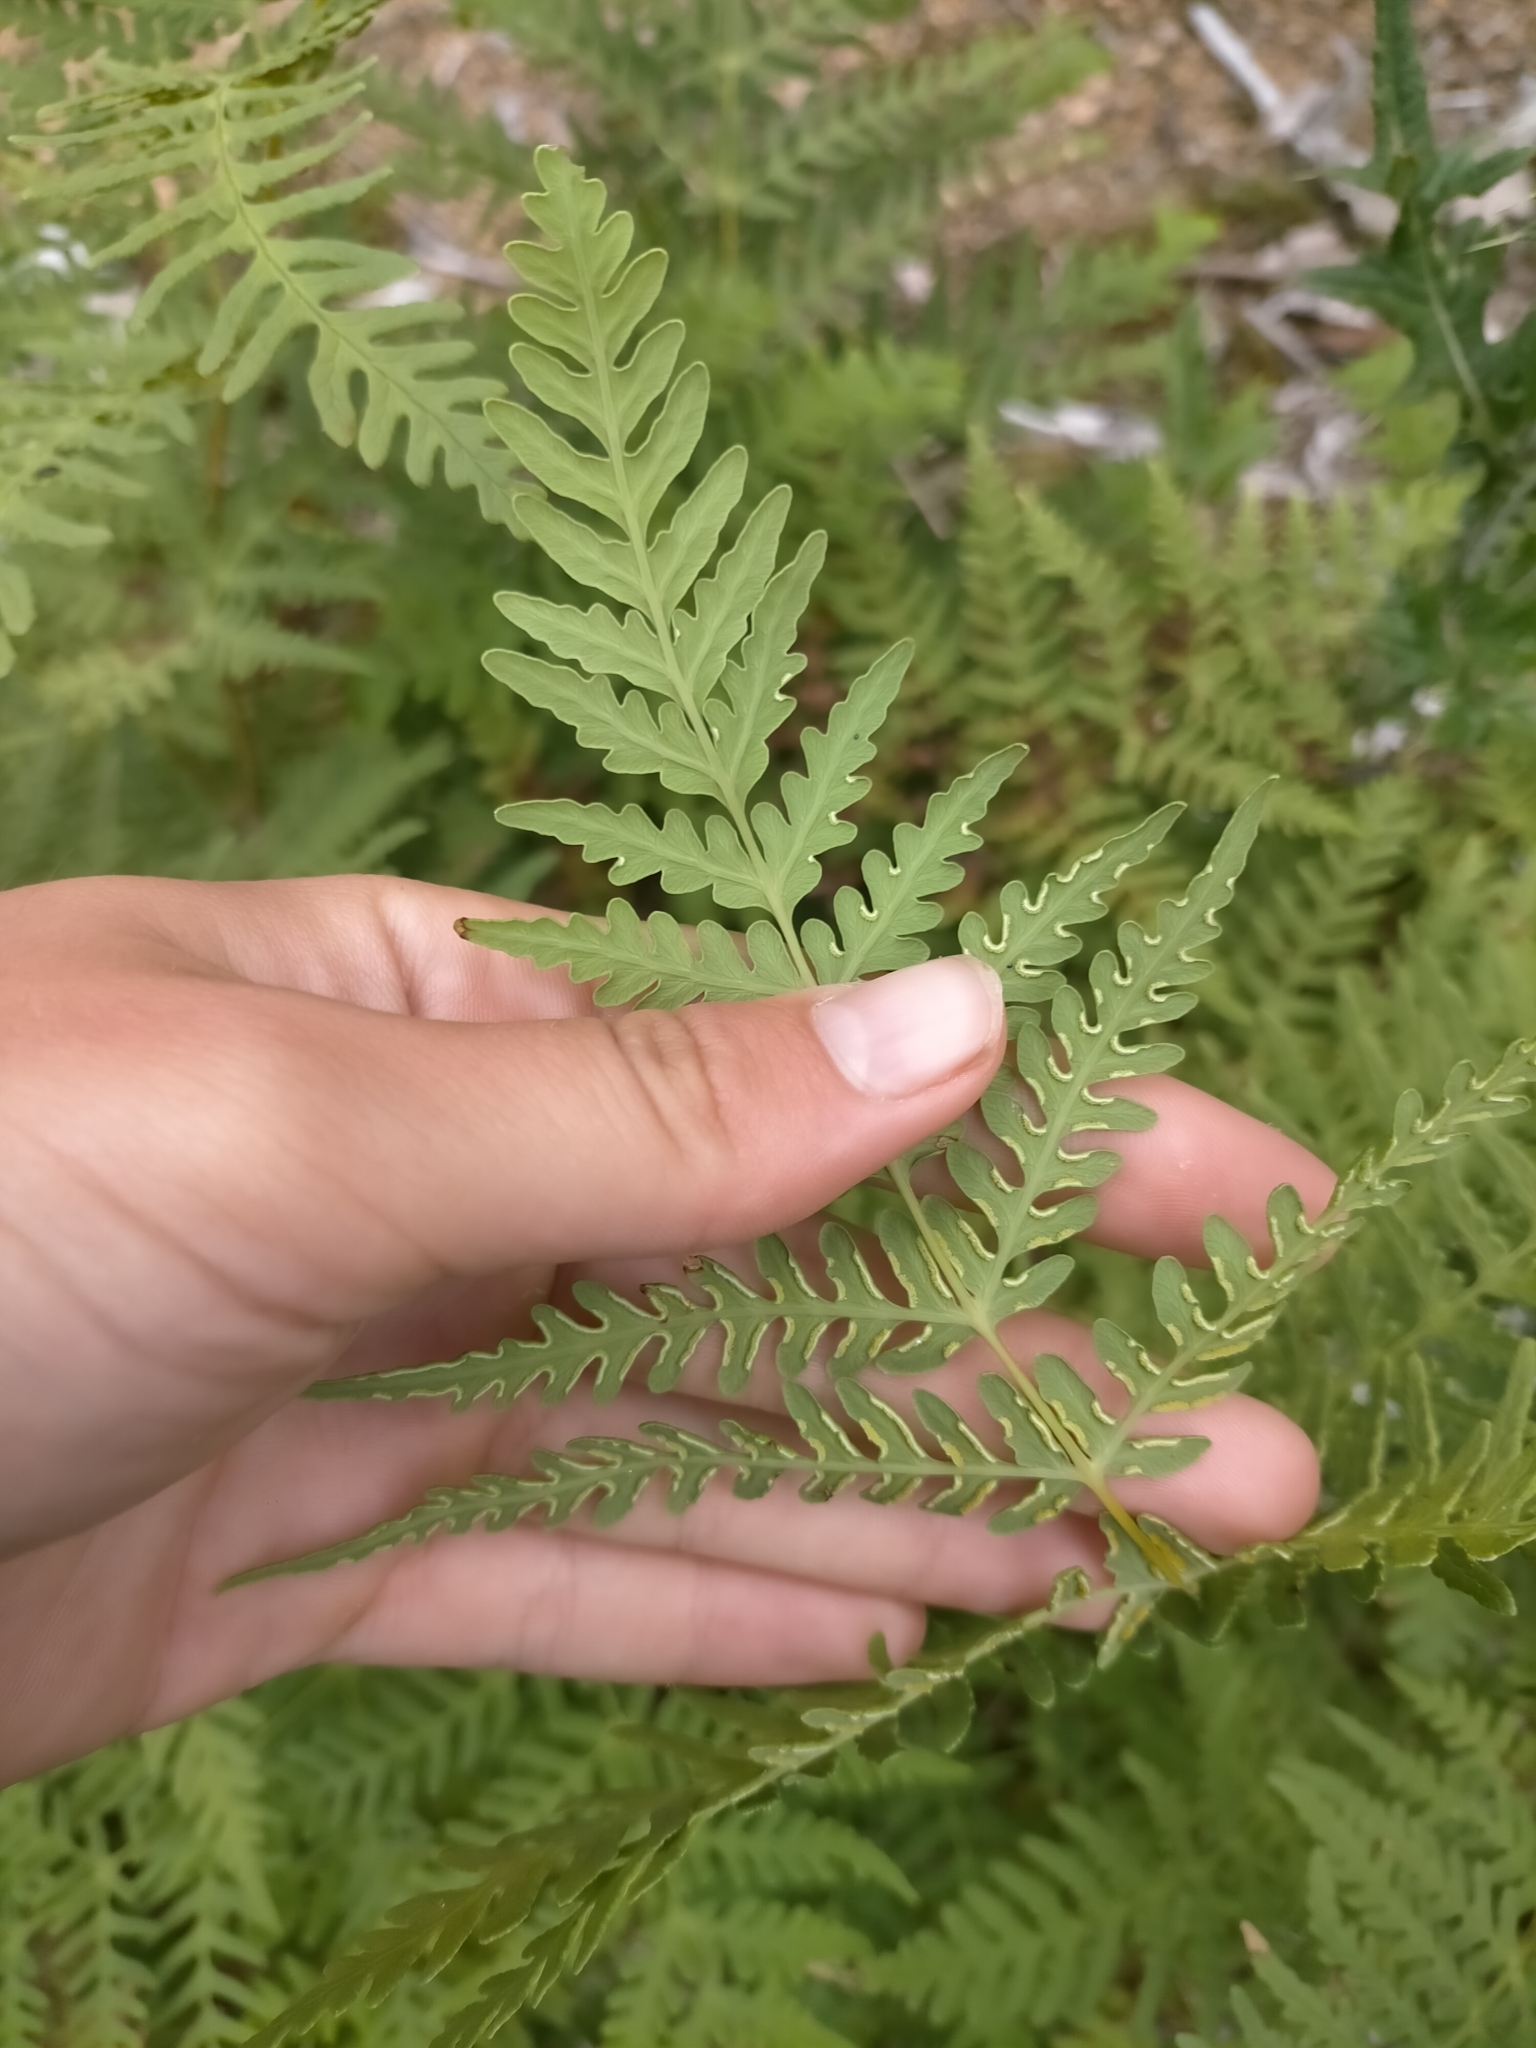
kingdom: Plantae
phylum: Tracheophyta
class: Polypodiopsida
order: Polypodiales
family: Dennstaedtiaceae
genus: Histiopteris
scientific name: Histiopteris incisa
